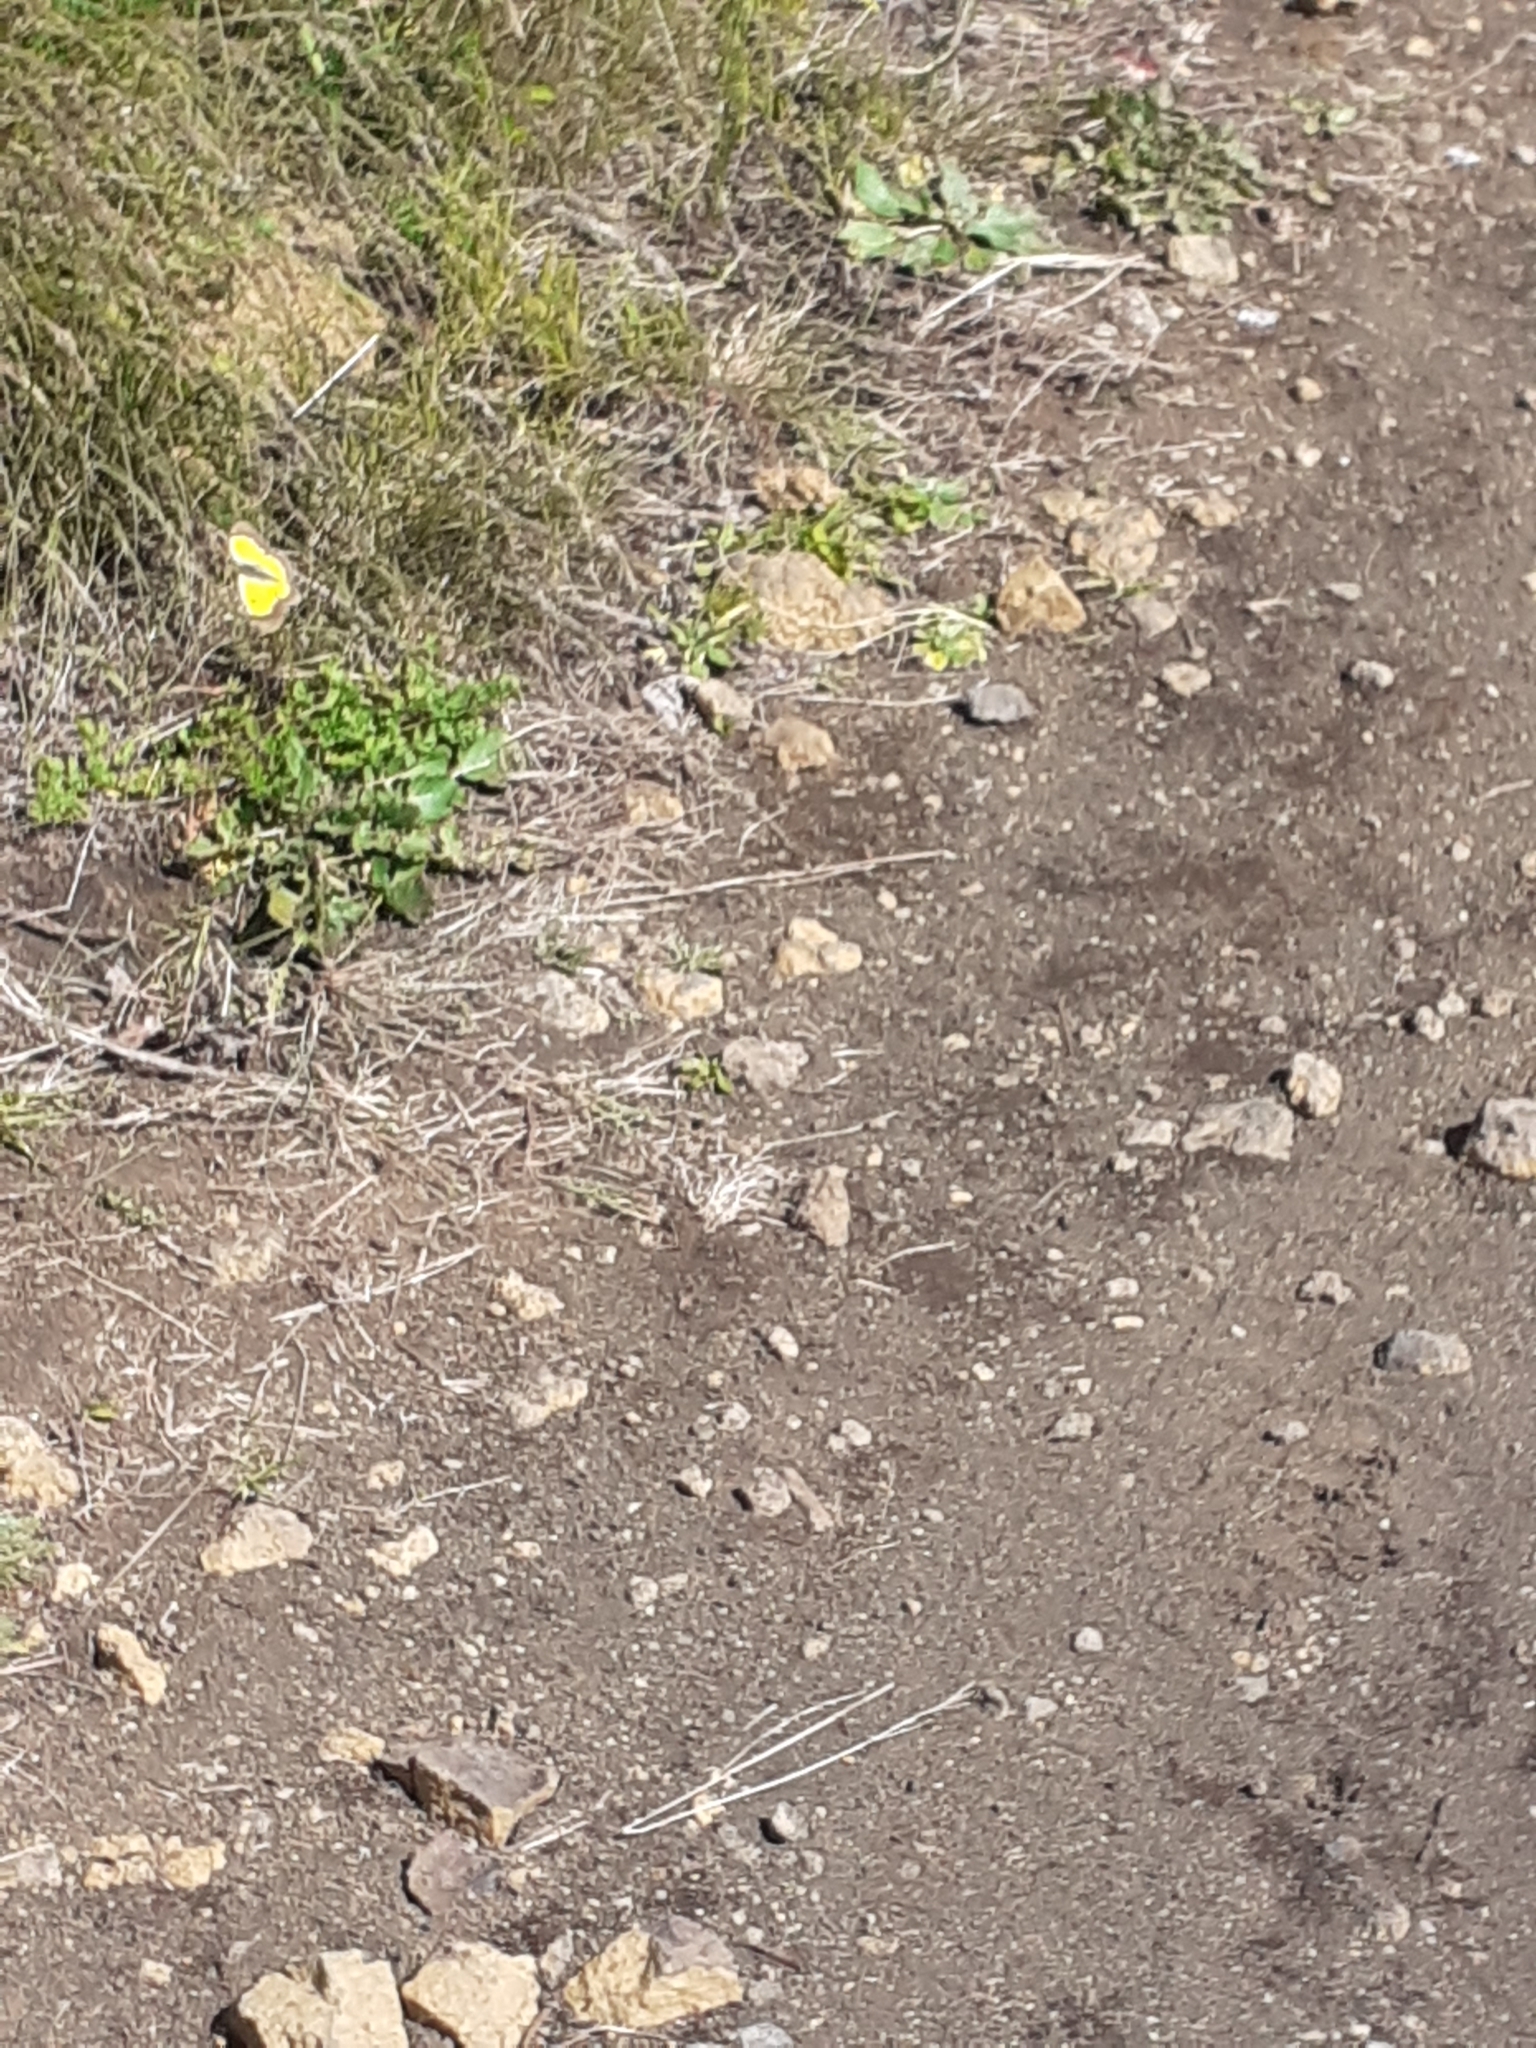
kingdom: Animalia
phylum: Arthropoda
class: Insecta
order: Lepidoptera
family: Pieridae
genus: Colias
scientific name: Colias croceus
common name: Clouded yellow
